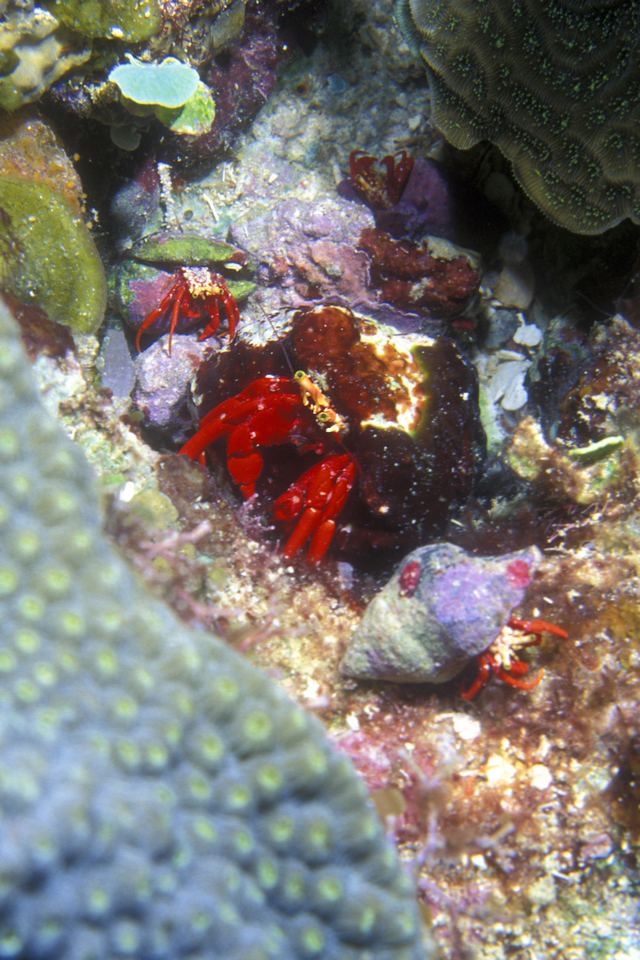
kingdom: Animalia
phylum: Arthropoda
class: Malacostraca
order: Decapoda
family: Diogenidae
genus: Paguristes
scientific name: Paguristes cadenati
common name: Red reef hermit
